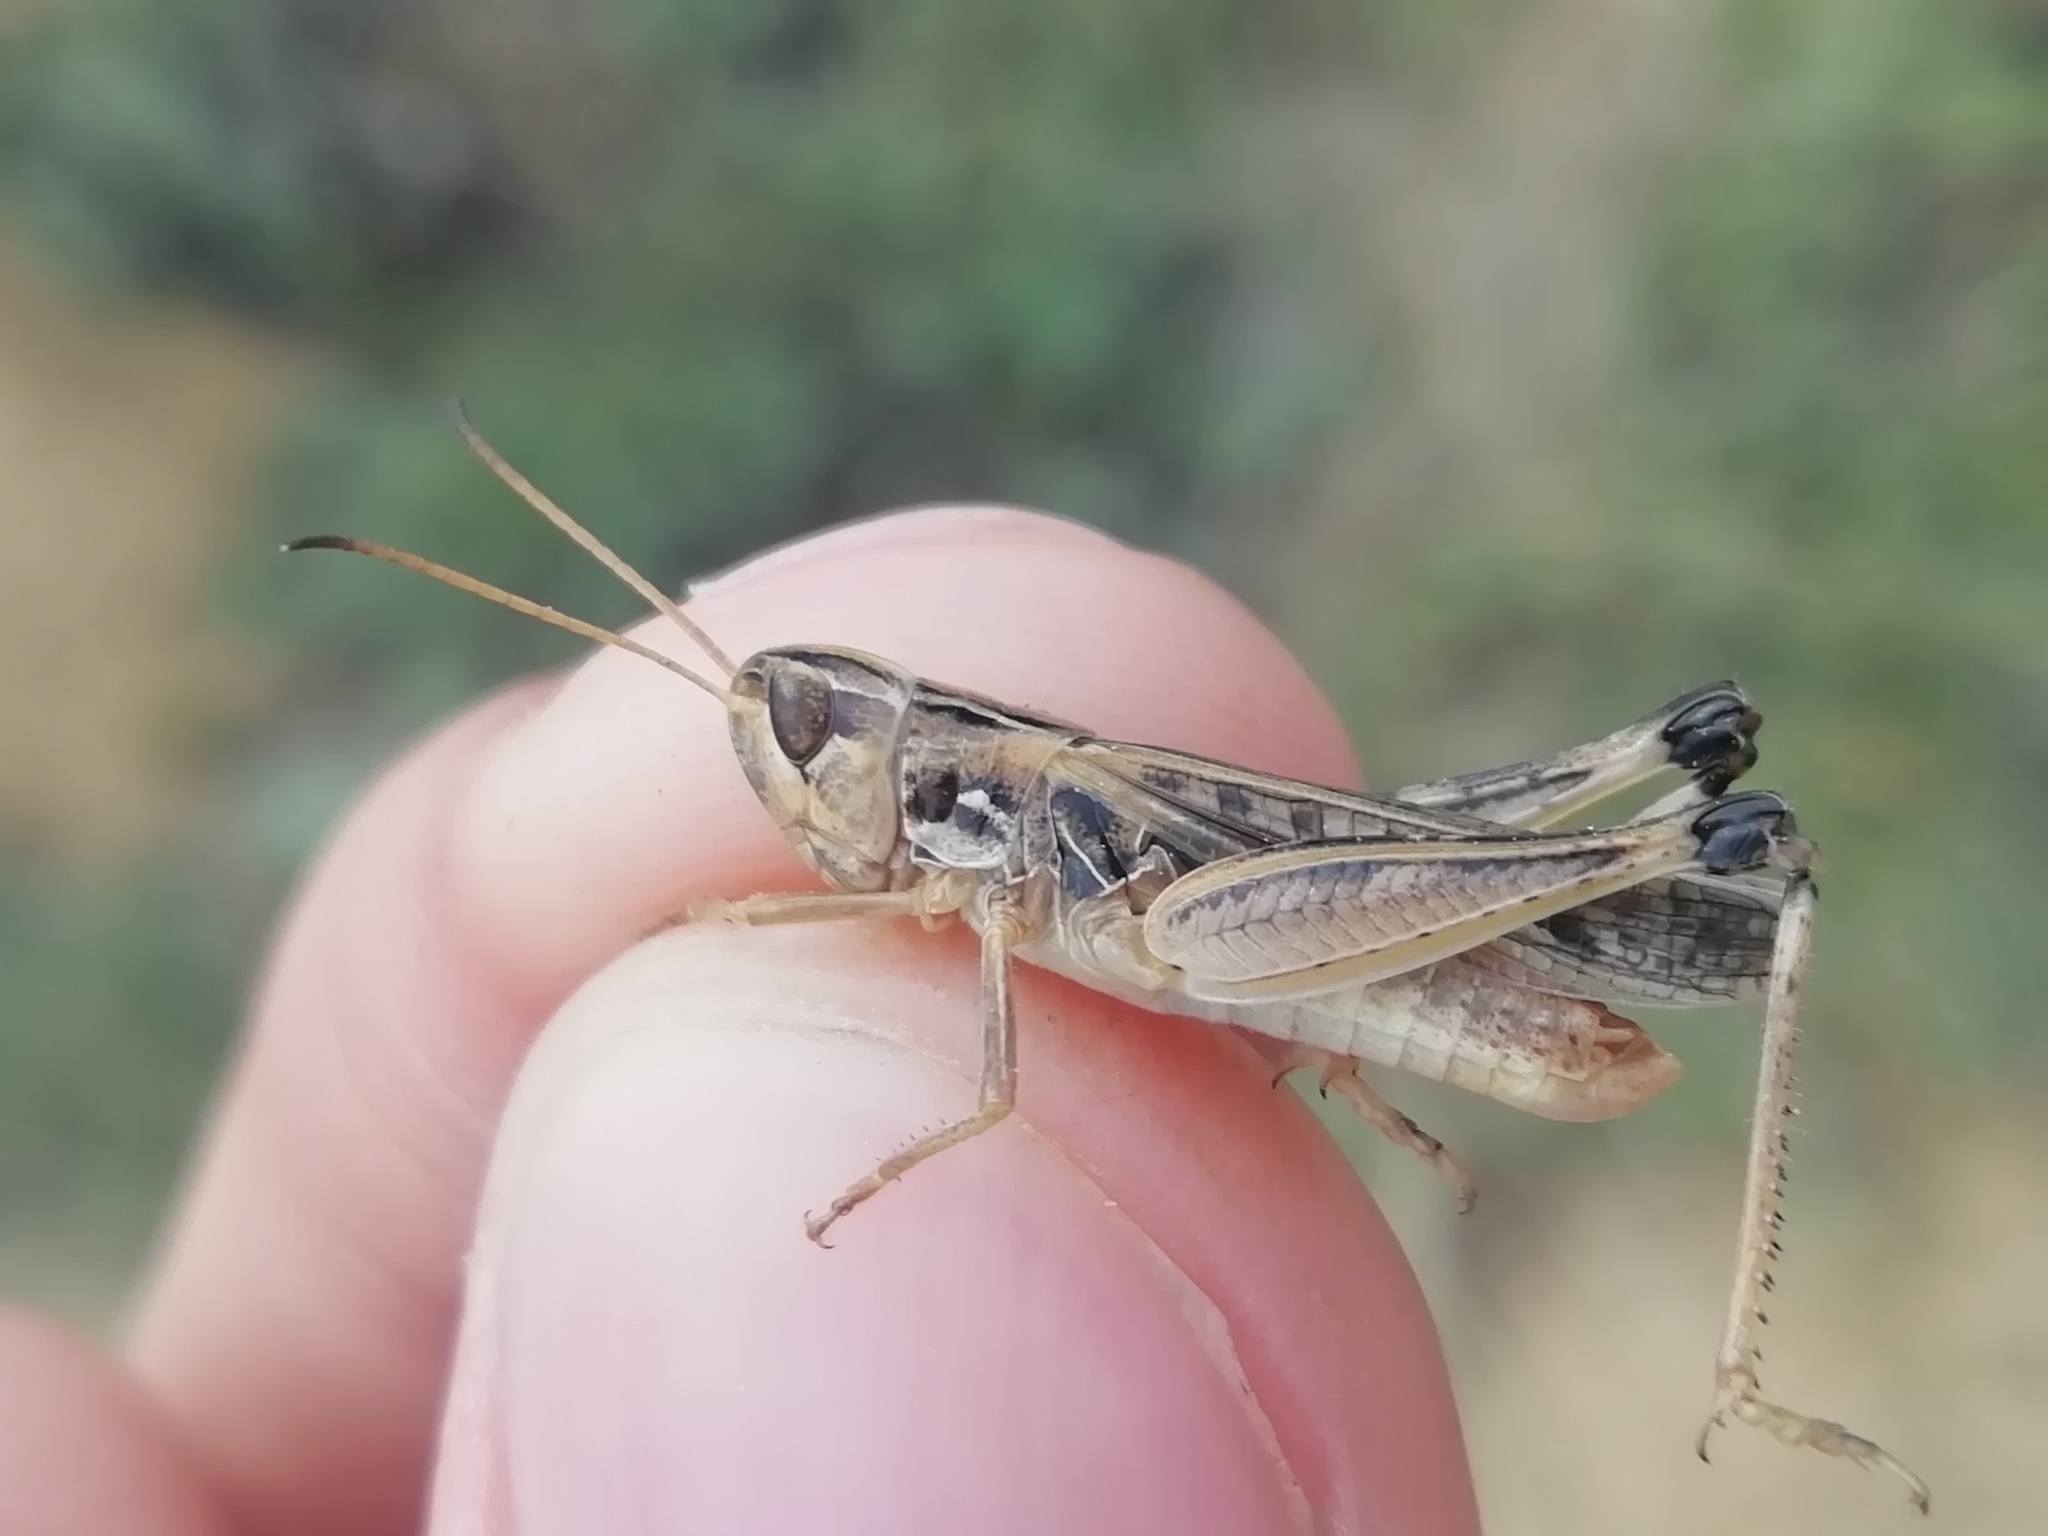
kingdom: Animalia
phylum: Arthropoda
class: Insecta
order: Orthoptera
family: Acrididae
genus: Stenobothrus
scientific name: Stenobothrus eurasius
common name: Eurasian toothed grasshopper
